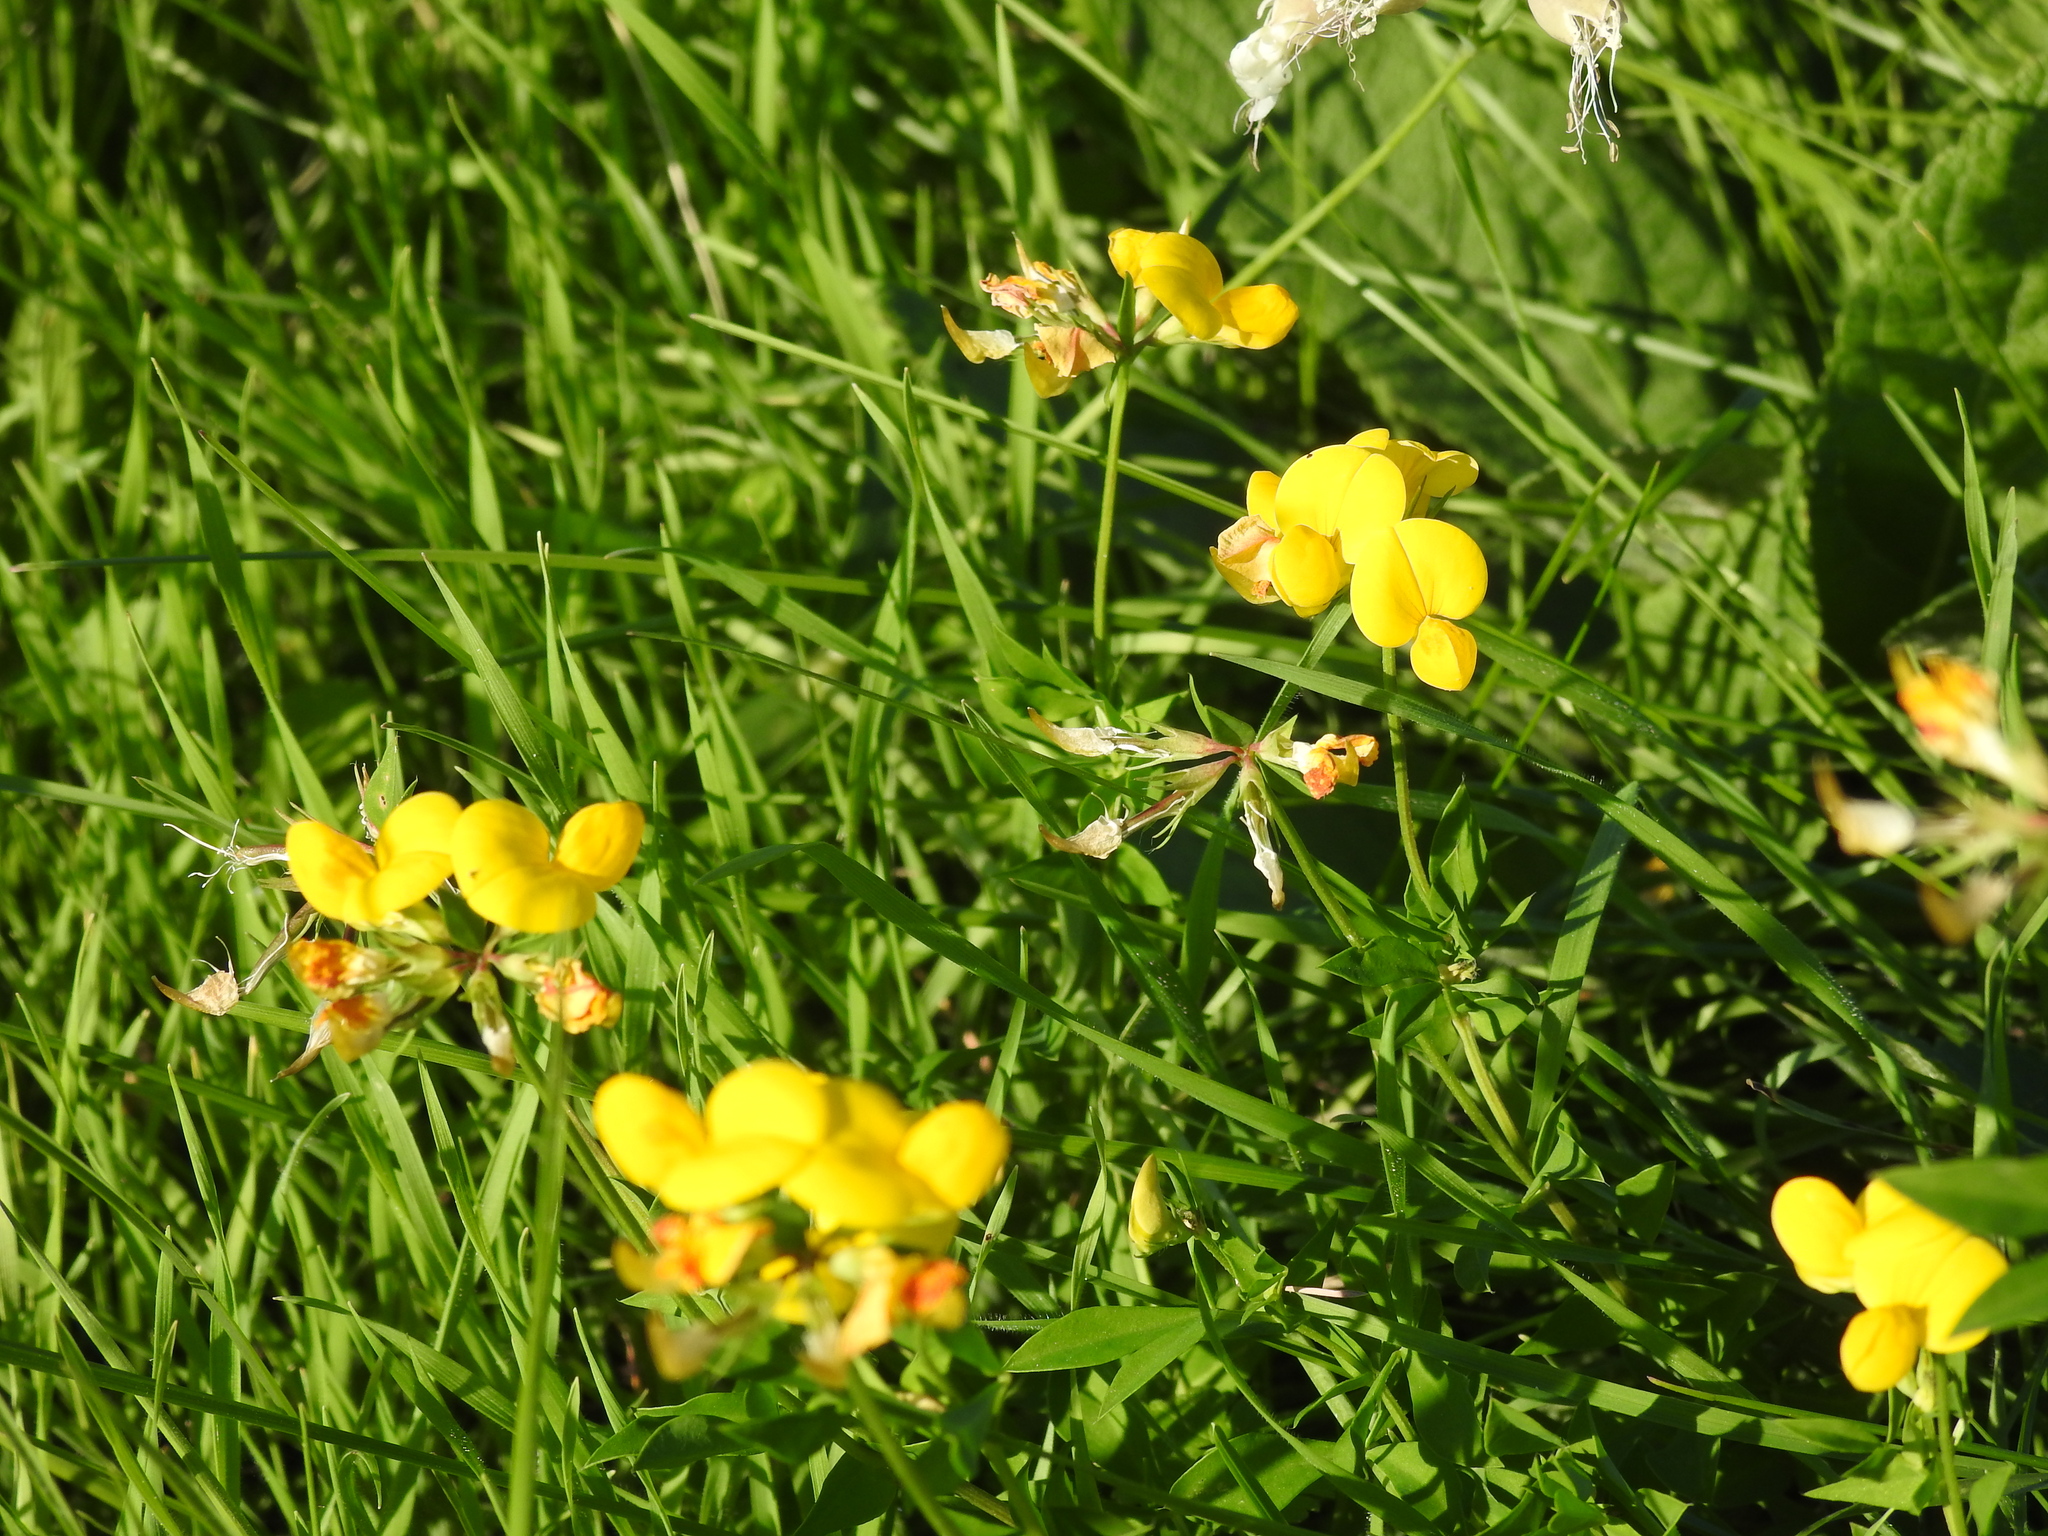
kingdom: Plantae
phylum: Tracheophyta
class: Magnoliopsida
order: Fabales
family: Fabaceae
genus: Lotus
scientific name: Lotus corniculatus
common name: Common bird's-foot-trefoil
